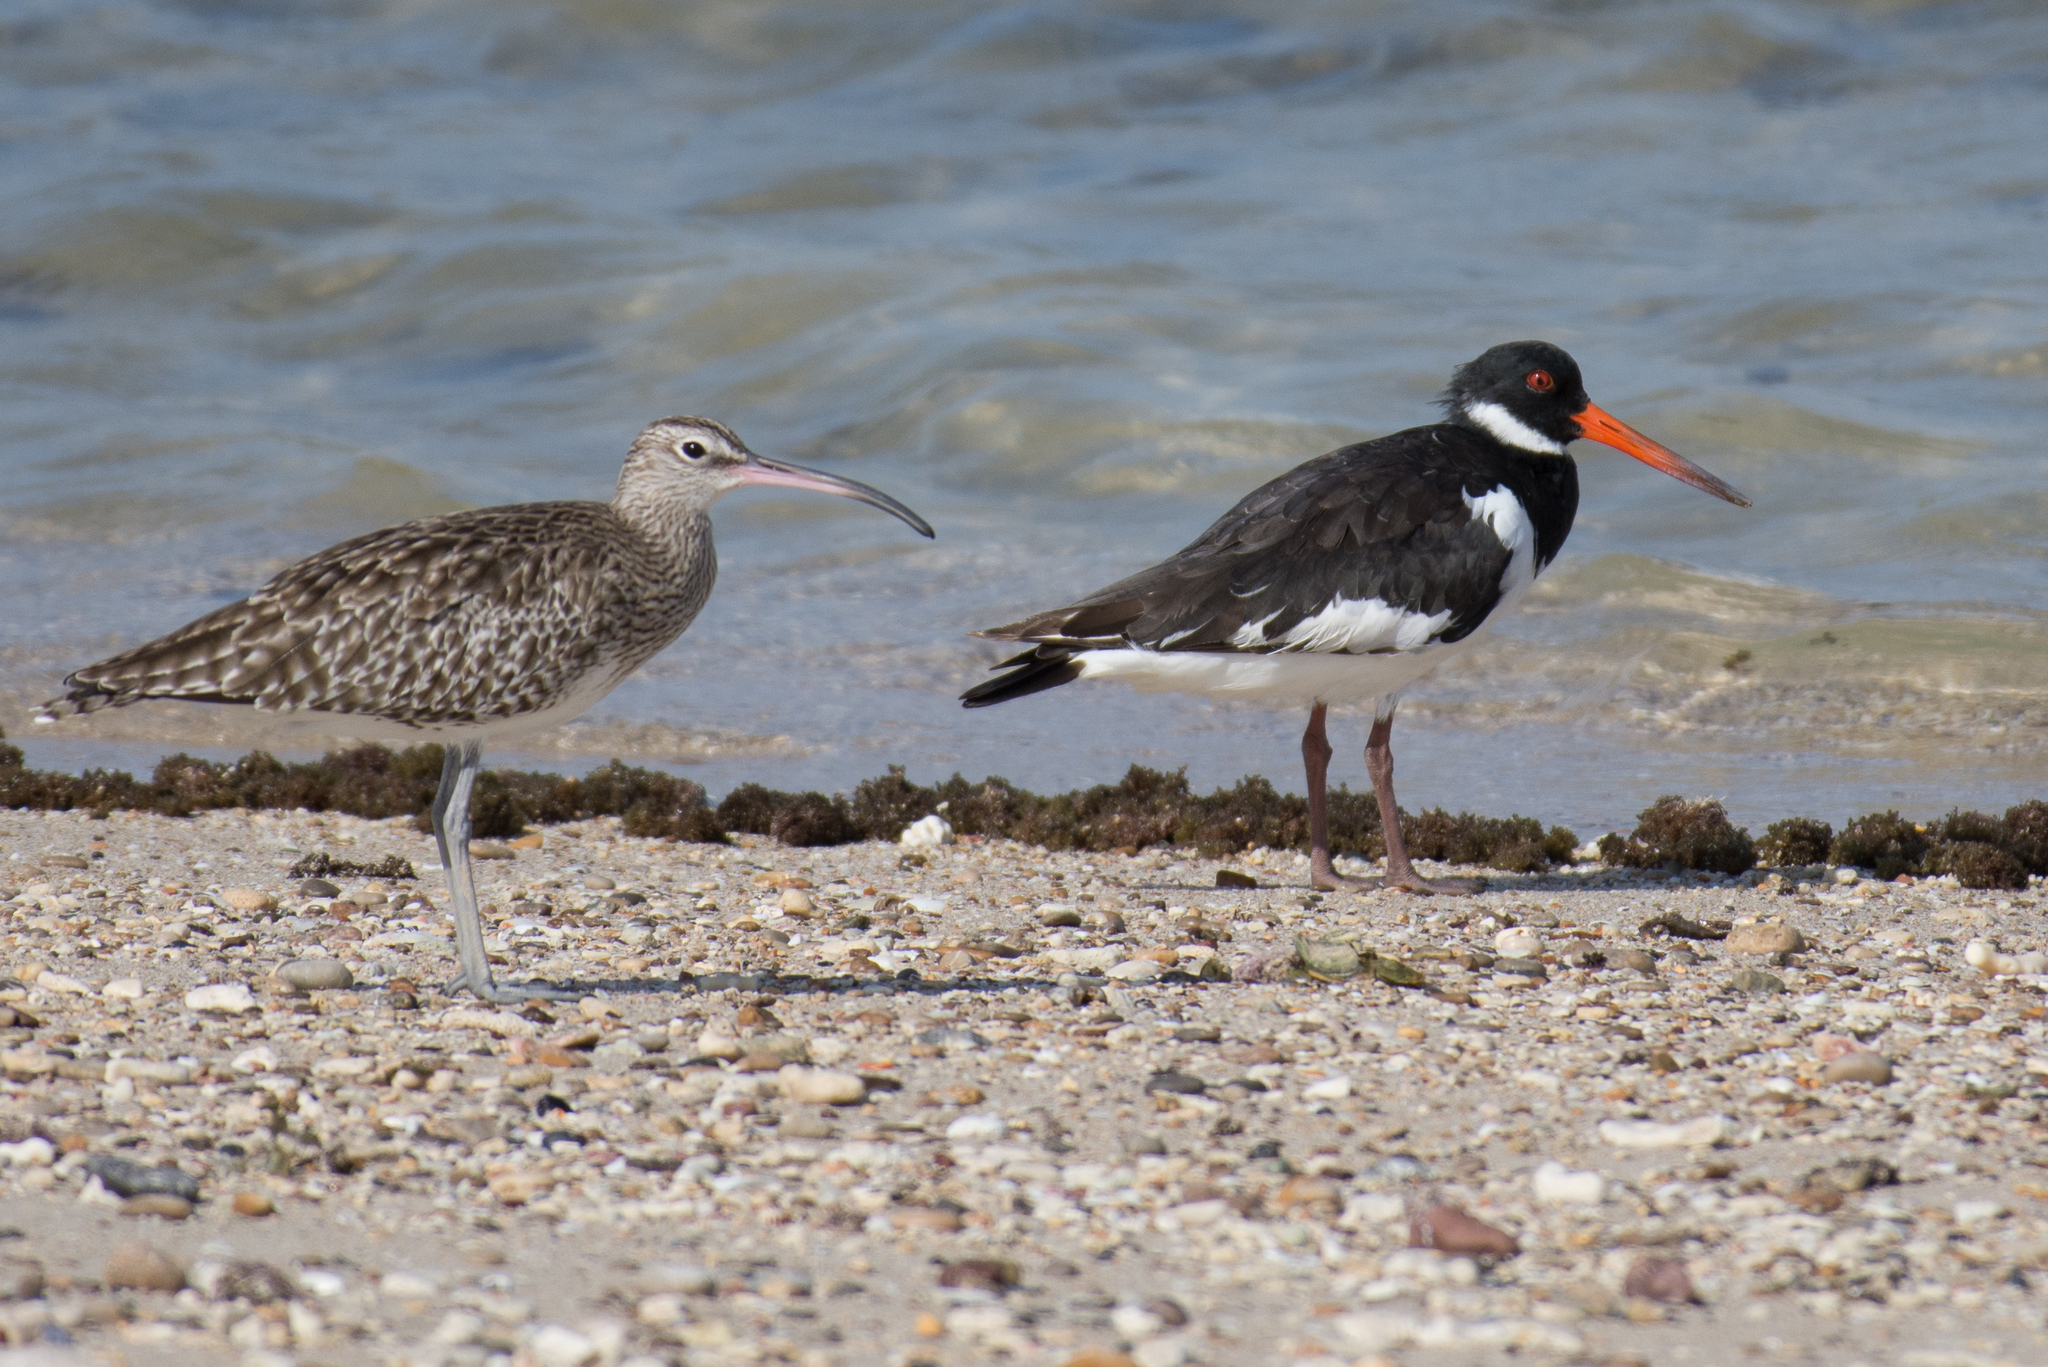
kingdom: Animalia
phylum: Chordata
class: Aves
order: Charadriiformes
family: Scolopacidae
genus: Numenius
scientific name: Numenius phaeopus
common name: Whimbrel
